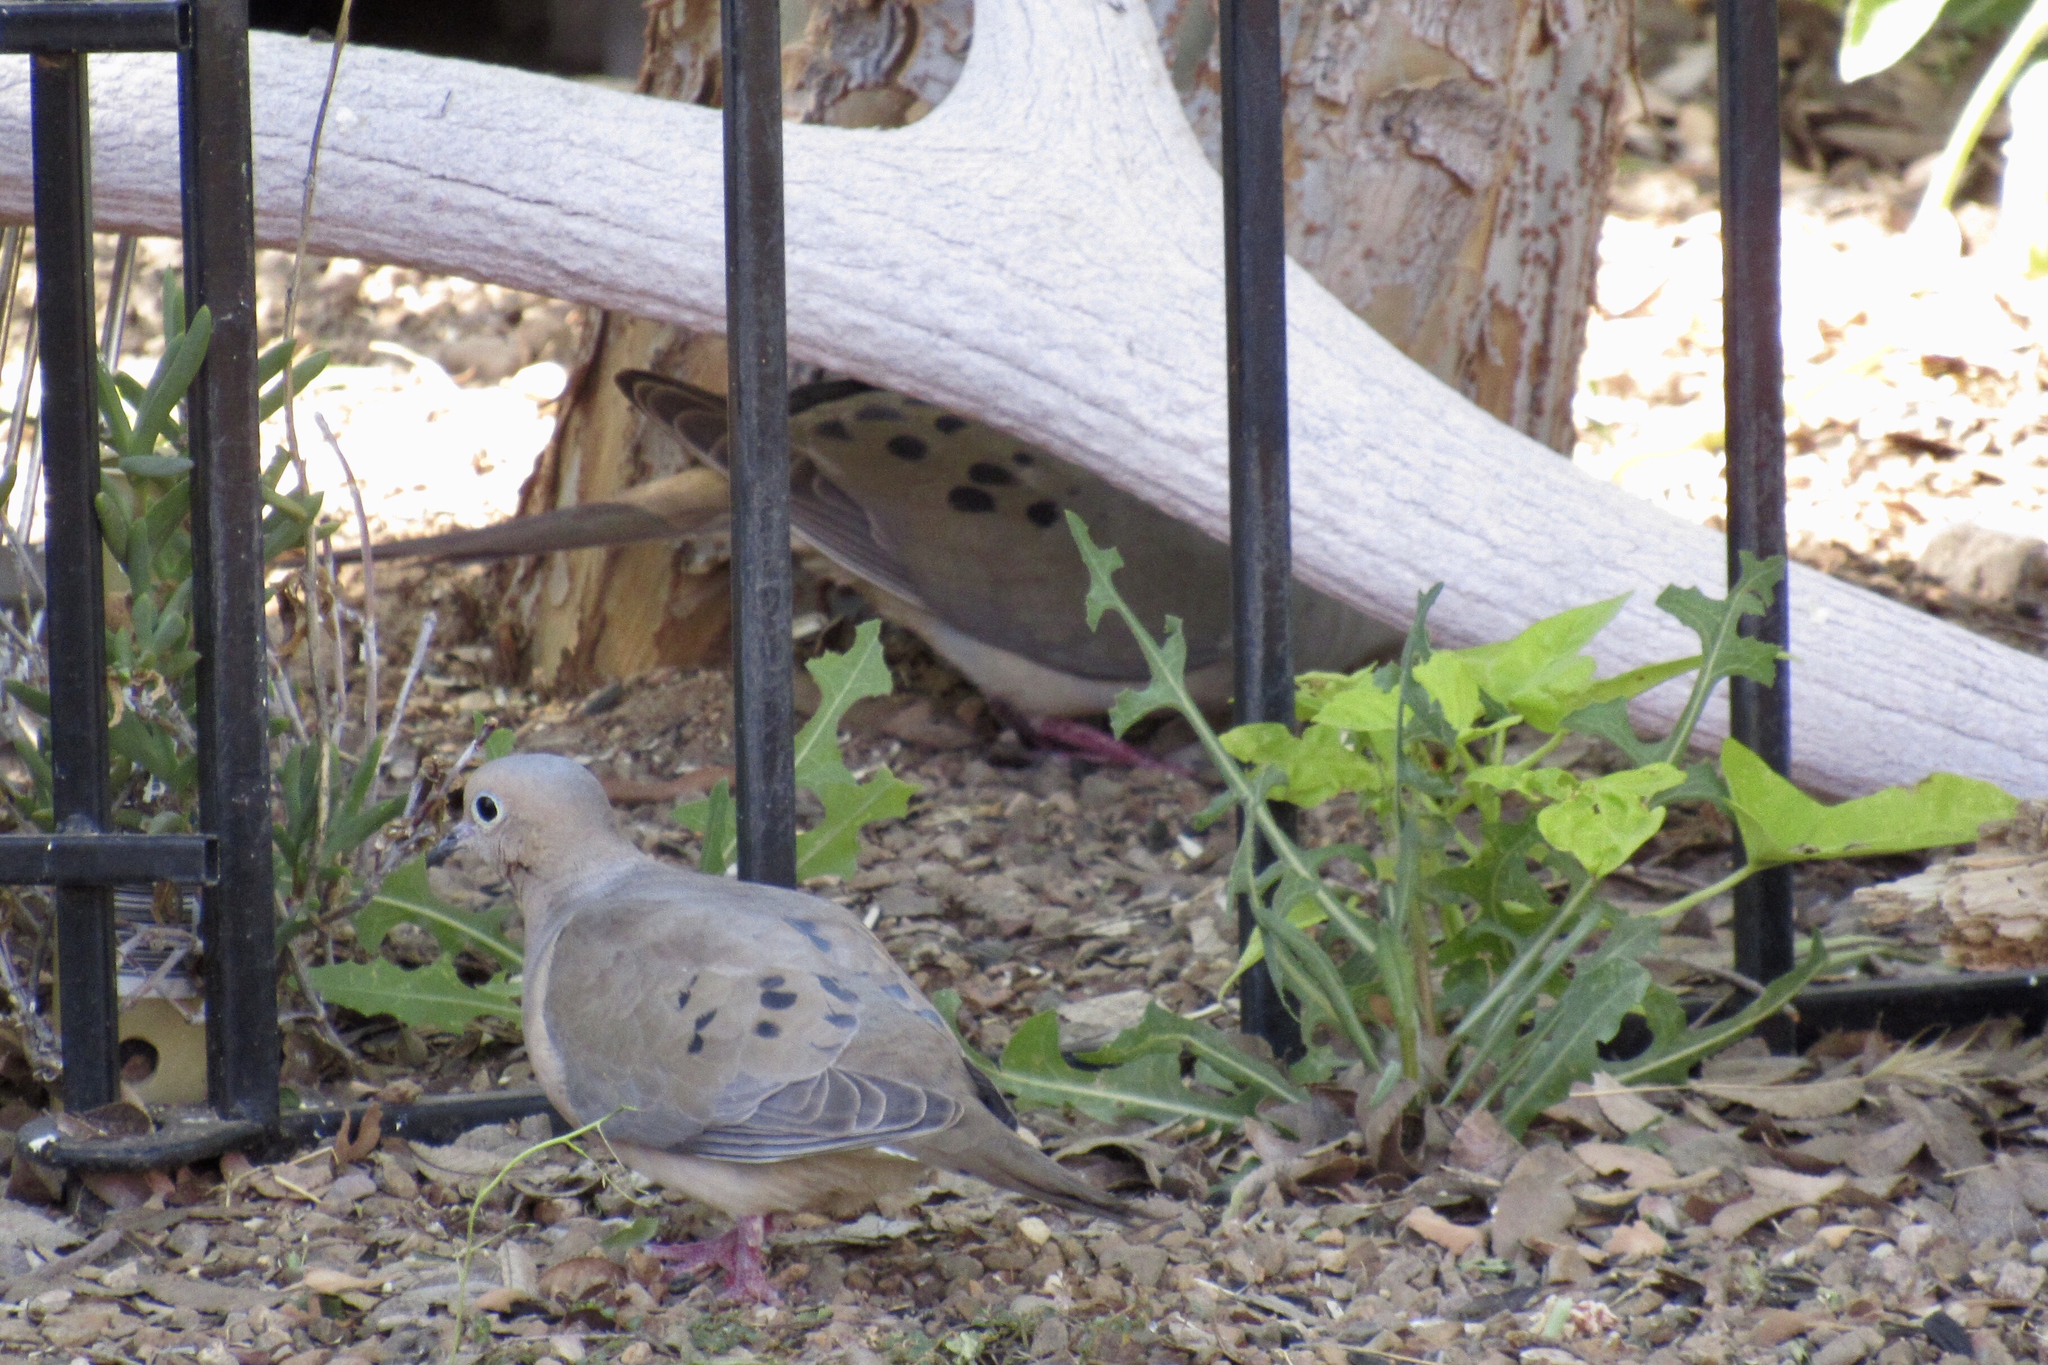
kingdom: Animalia
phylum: Chordata
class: Aves
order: Columbiformes
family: Columbidae
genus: Zenaida
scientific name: Zenaida macroura
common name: Mourning dove
